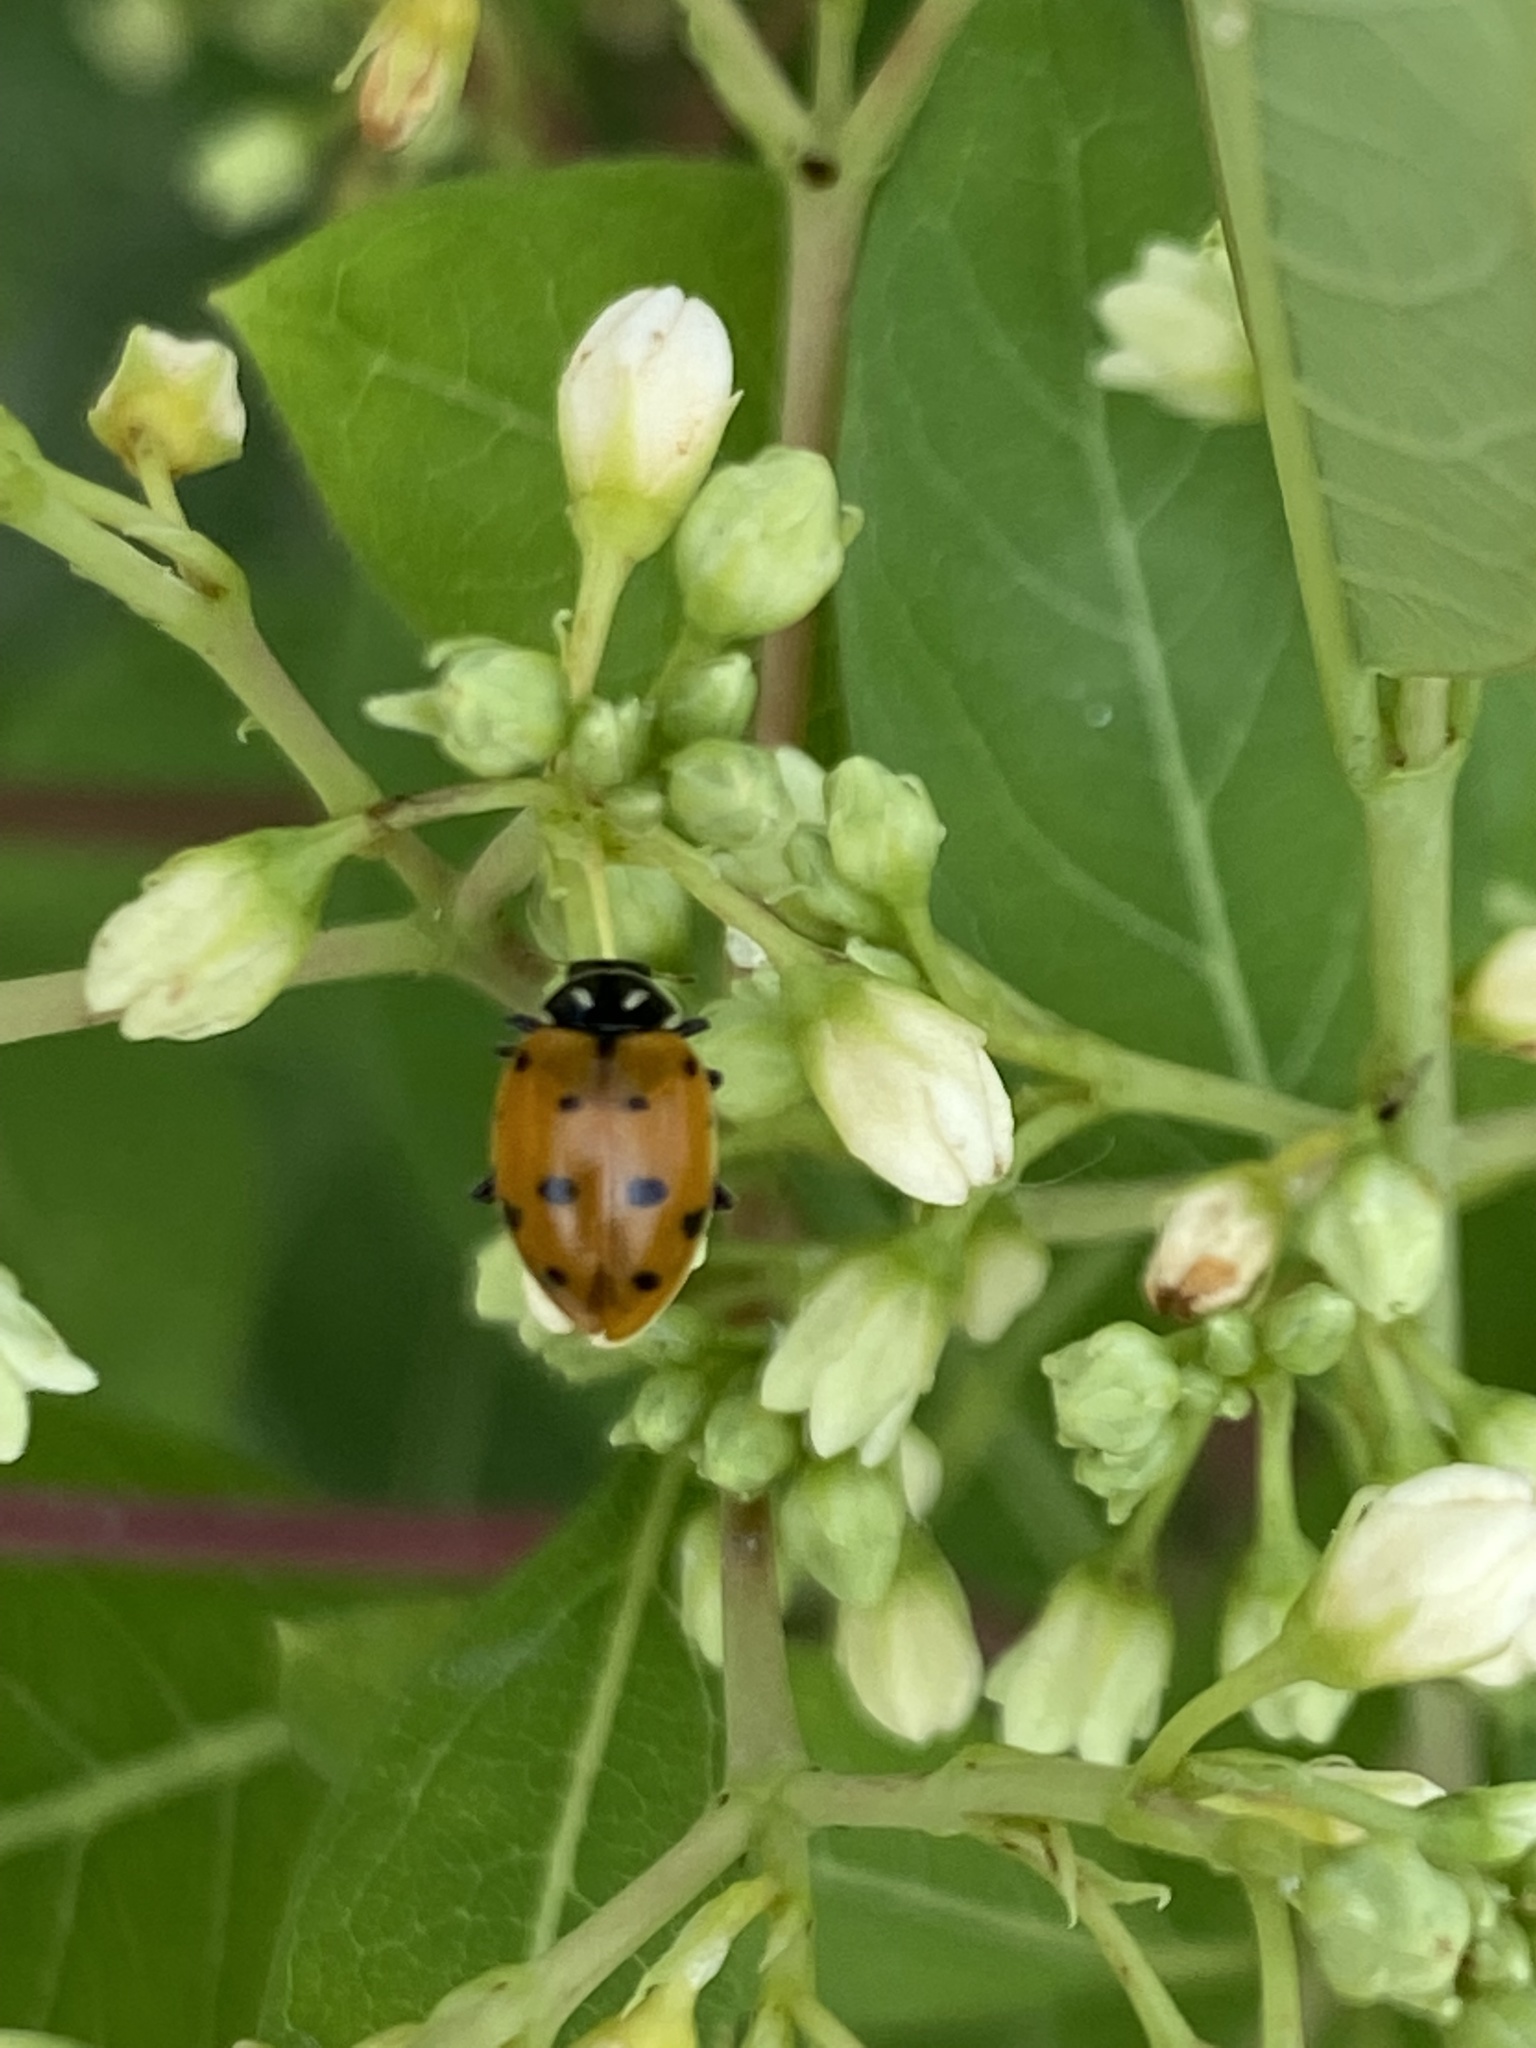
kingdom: Animalia
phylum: Arthropoda
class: Insecta
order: Coleoptera
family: Coccinellidae
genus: Hippodamia
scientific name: Hippodamia convergens
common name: Convergent lady beetle
